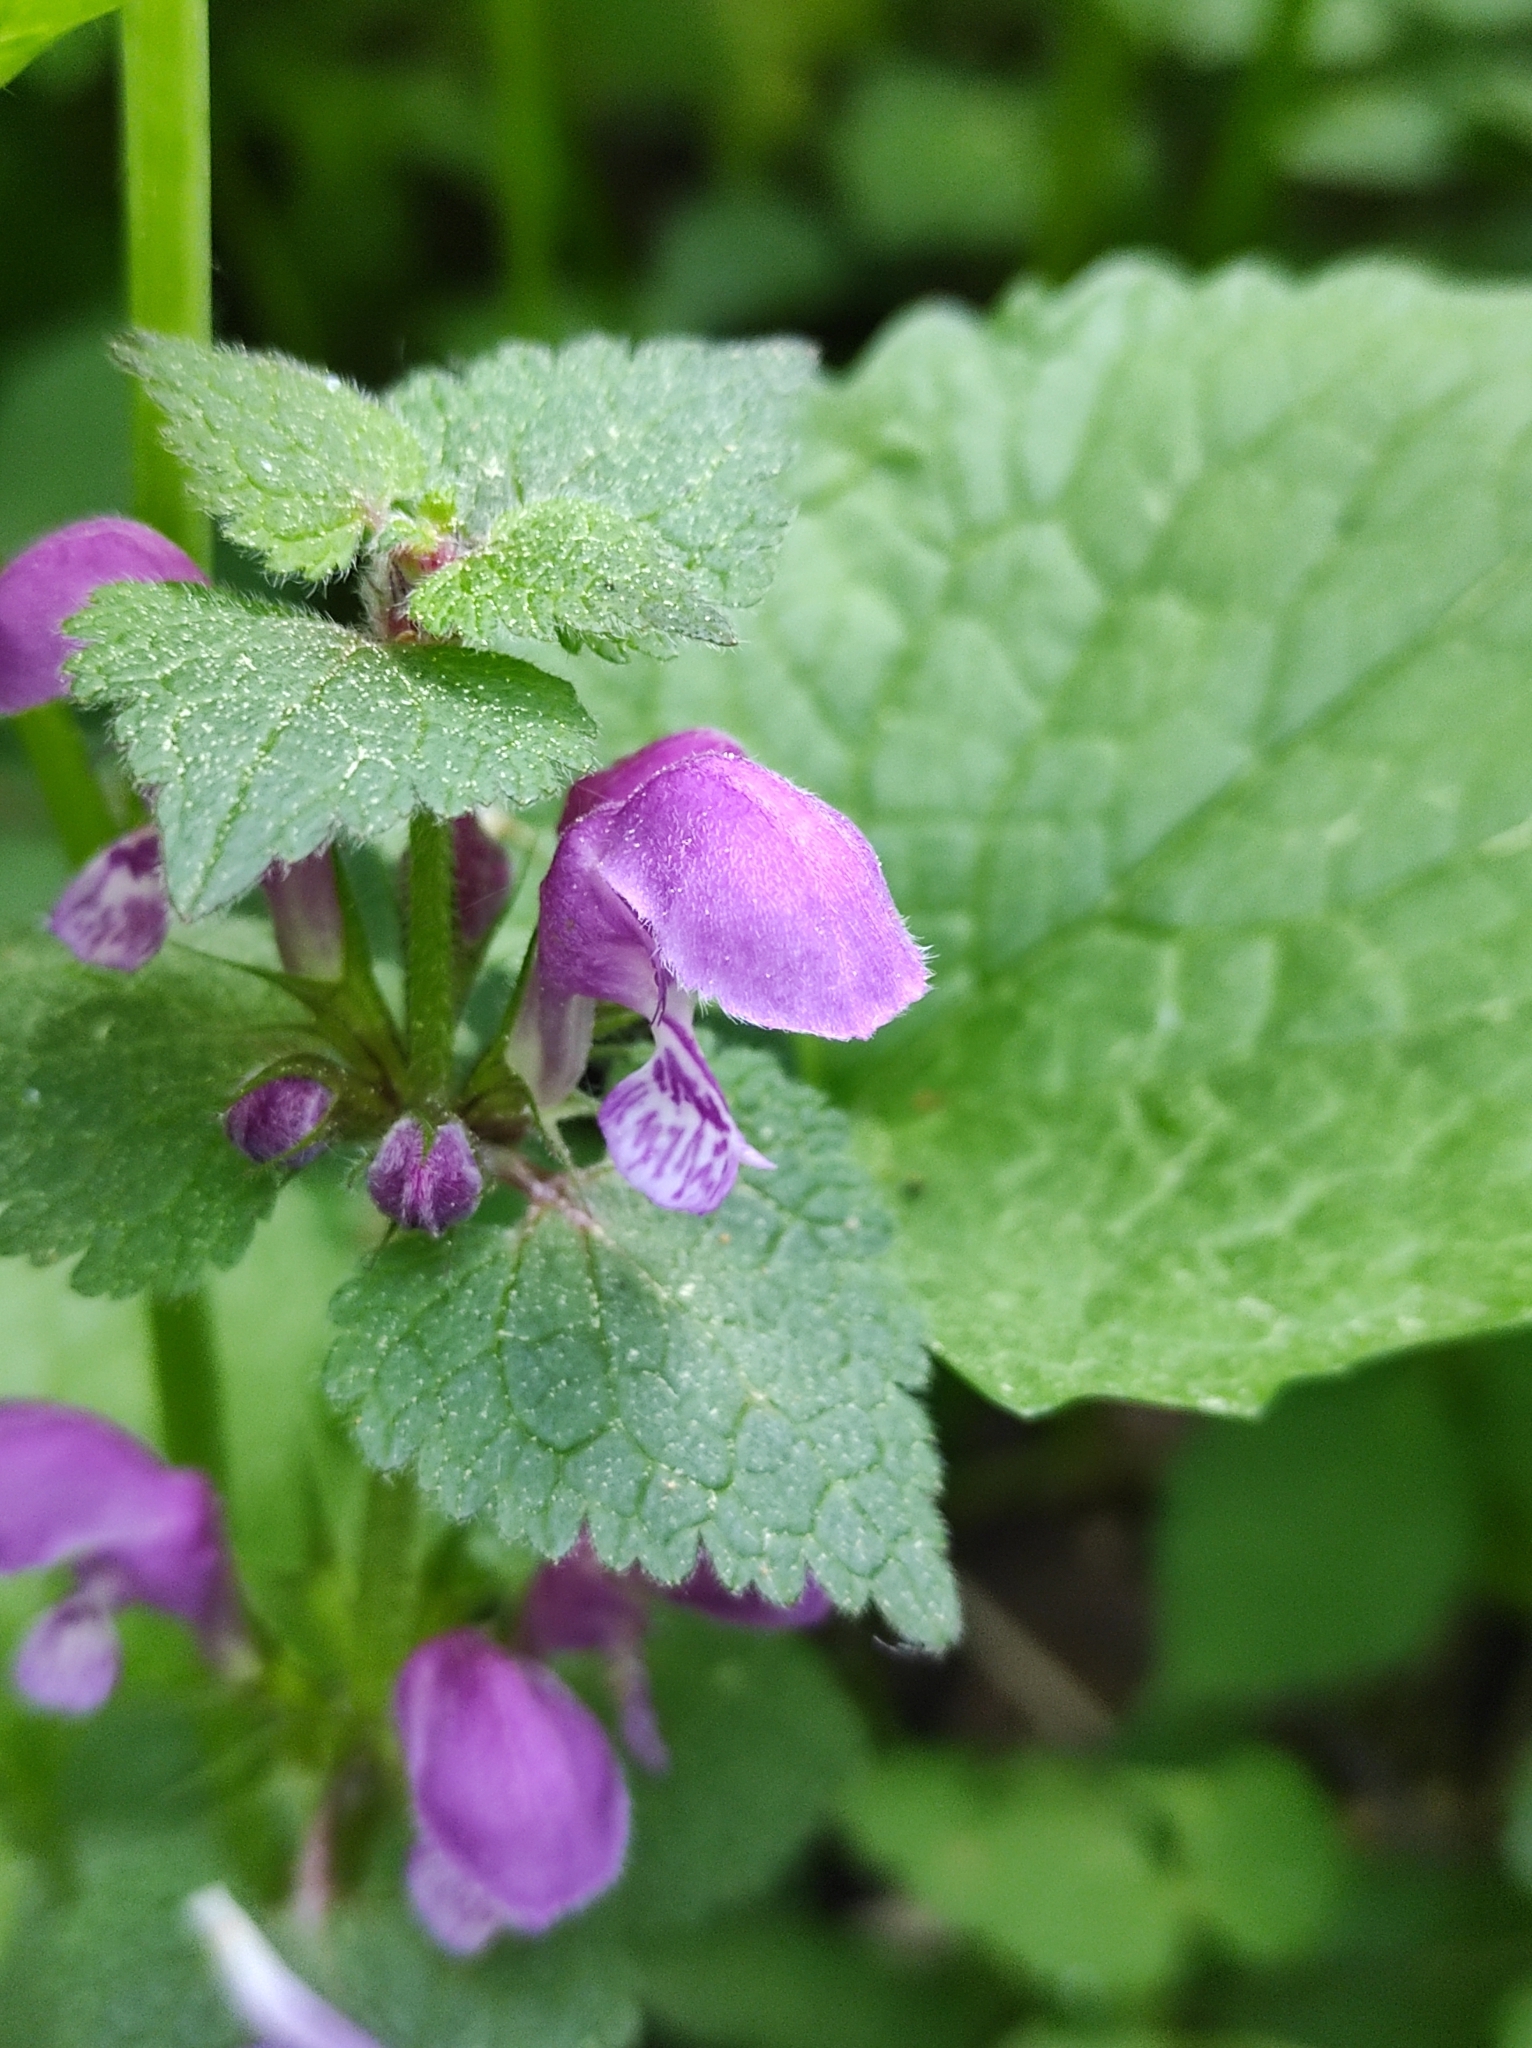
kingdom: Plantae
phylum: Tracheophyta
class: Magnoliopsida
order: Lamiales
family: Lamiaceae
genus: Lamium
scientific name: Lamium maculatum
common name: Spotted dead-nettle
